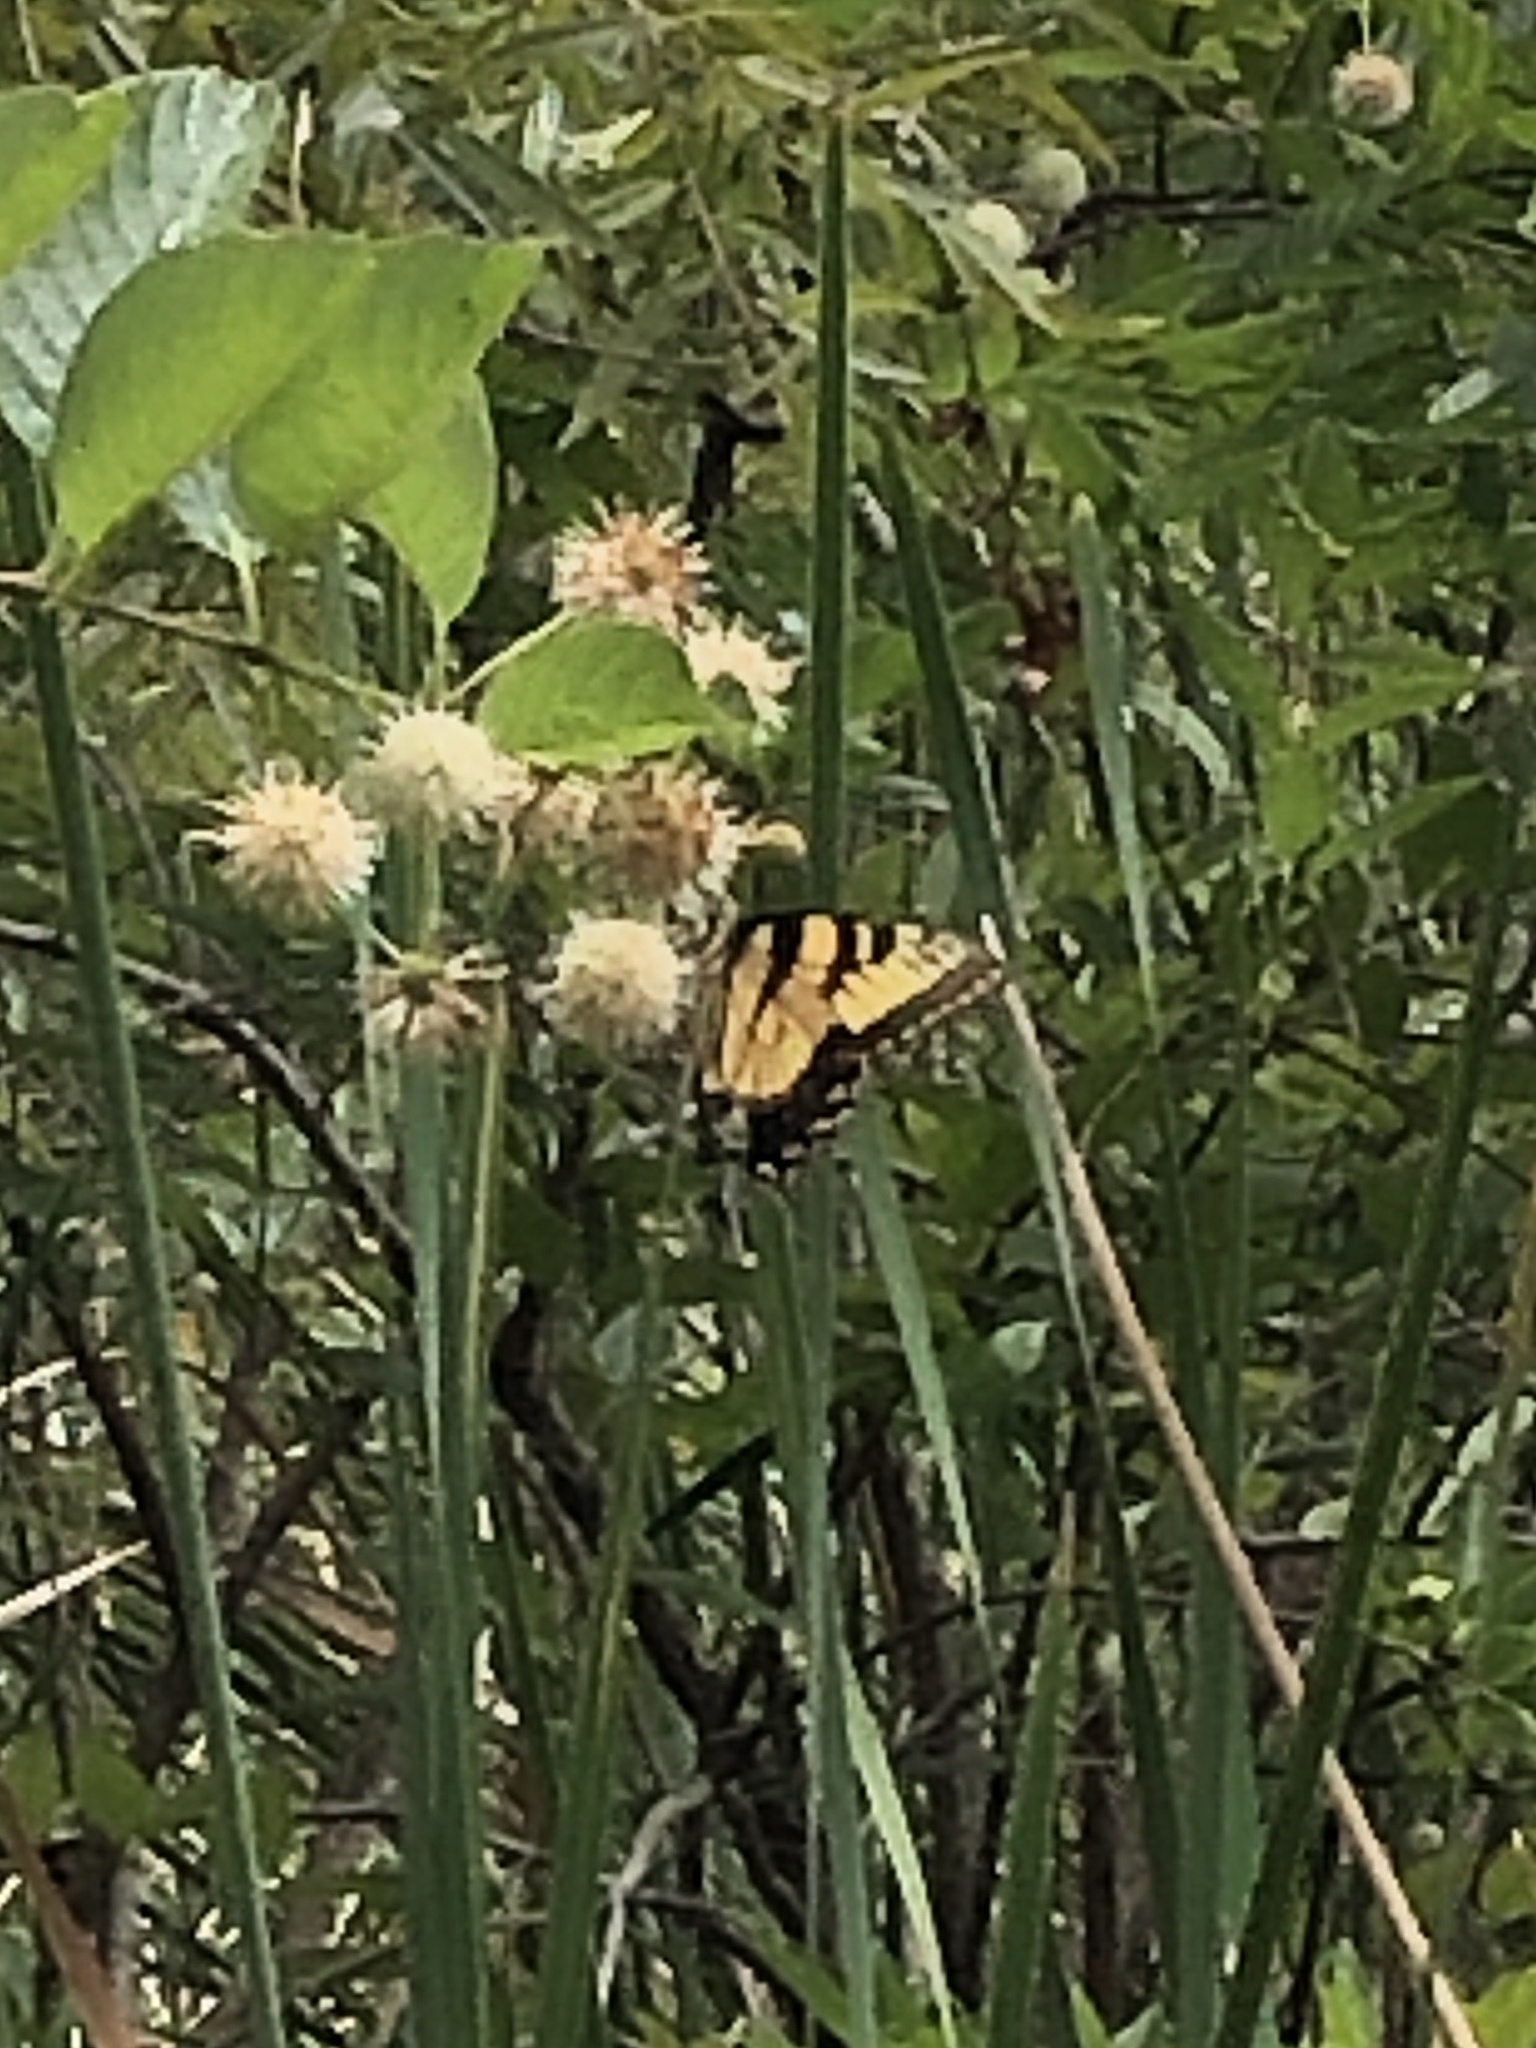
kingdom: Animalia
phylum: Arthropoda
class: Insecta
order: Lepidoptera
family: Papilionidae
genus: Papilio
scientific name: Papilio glaucus
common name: Tiger swallowtail
